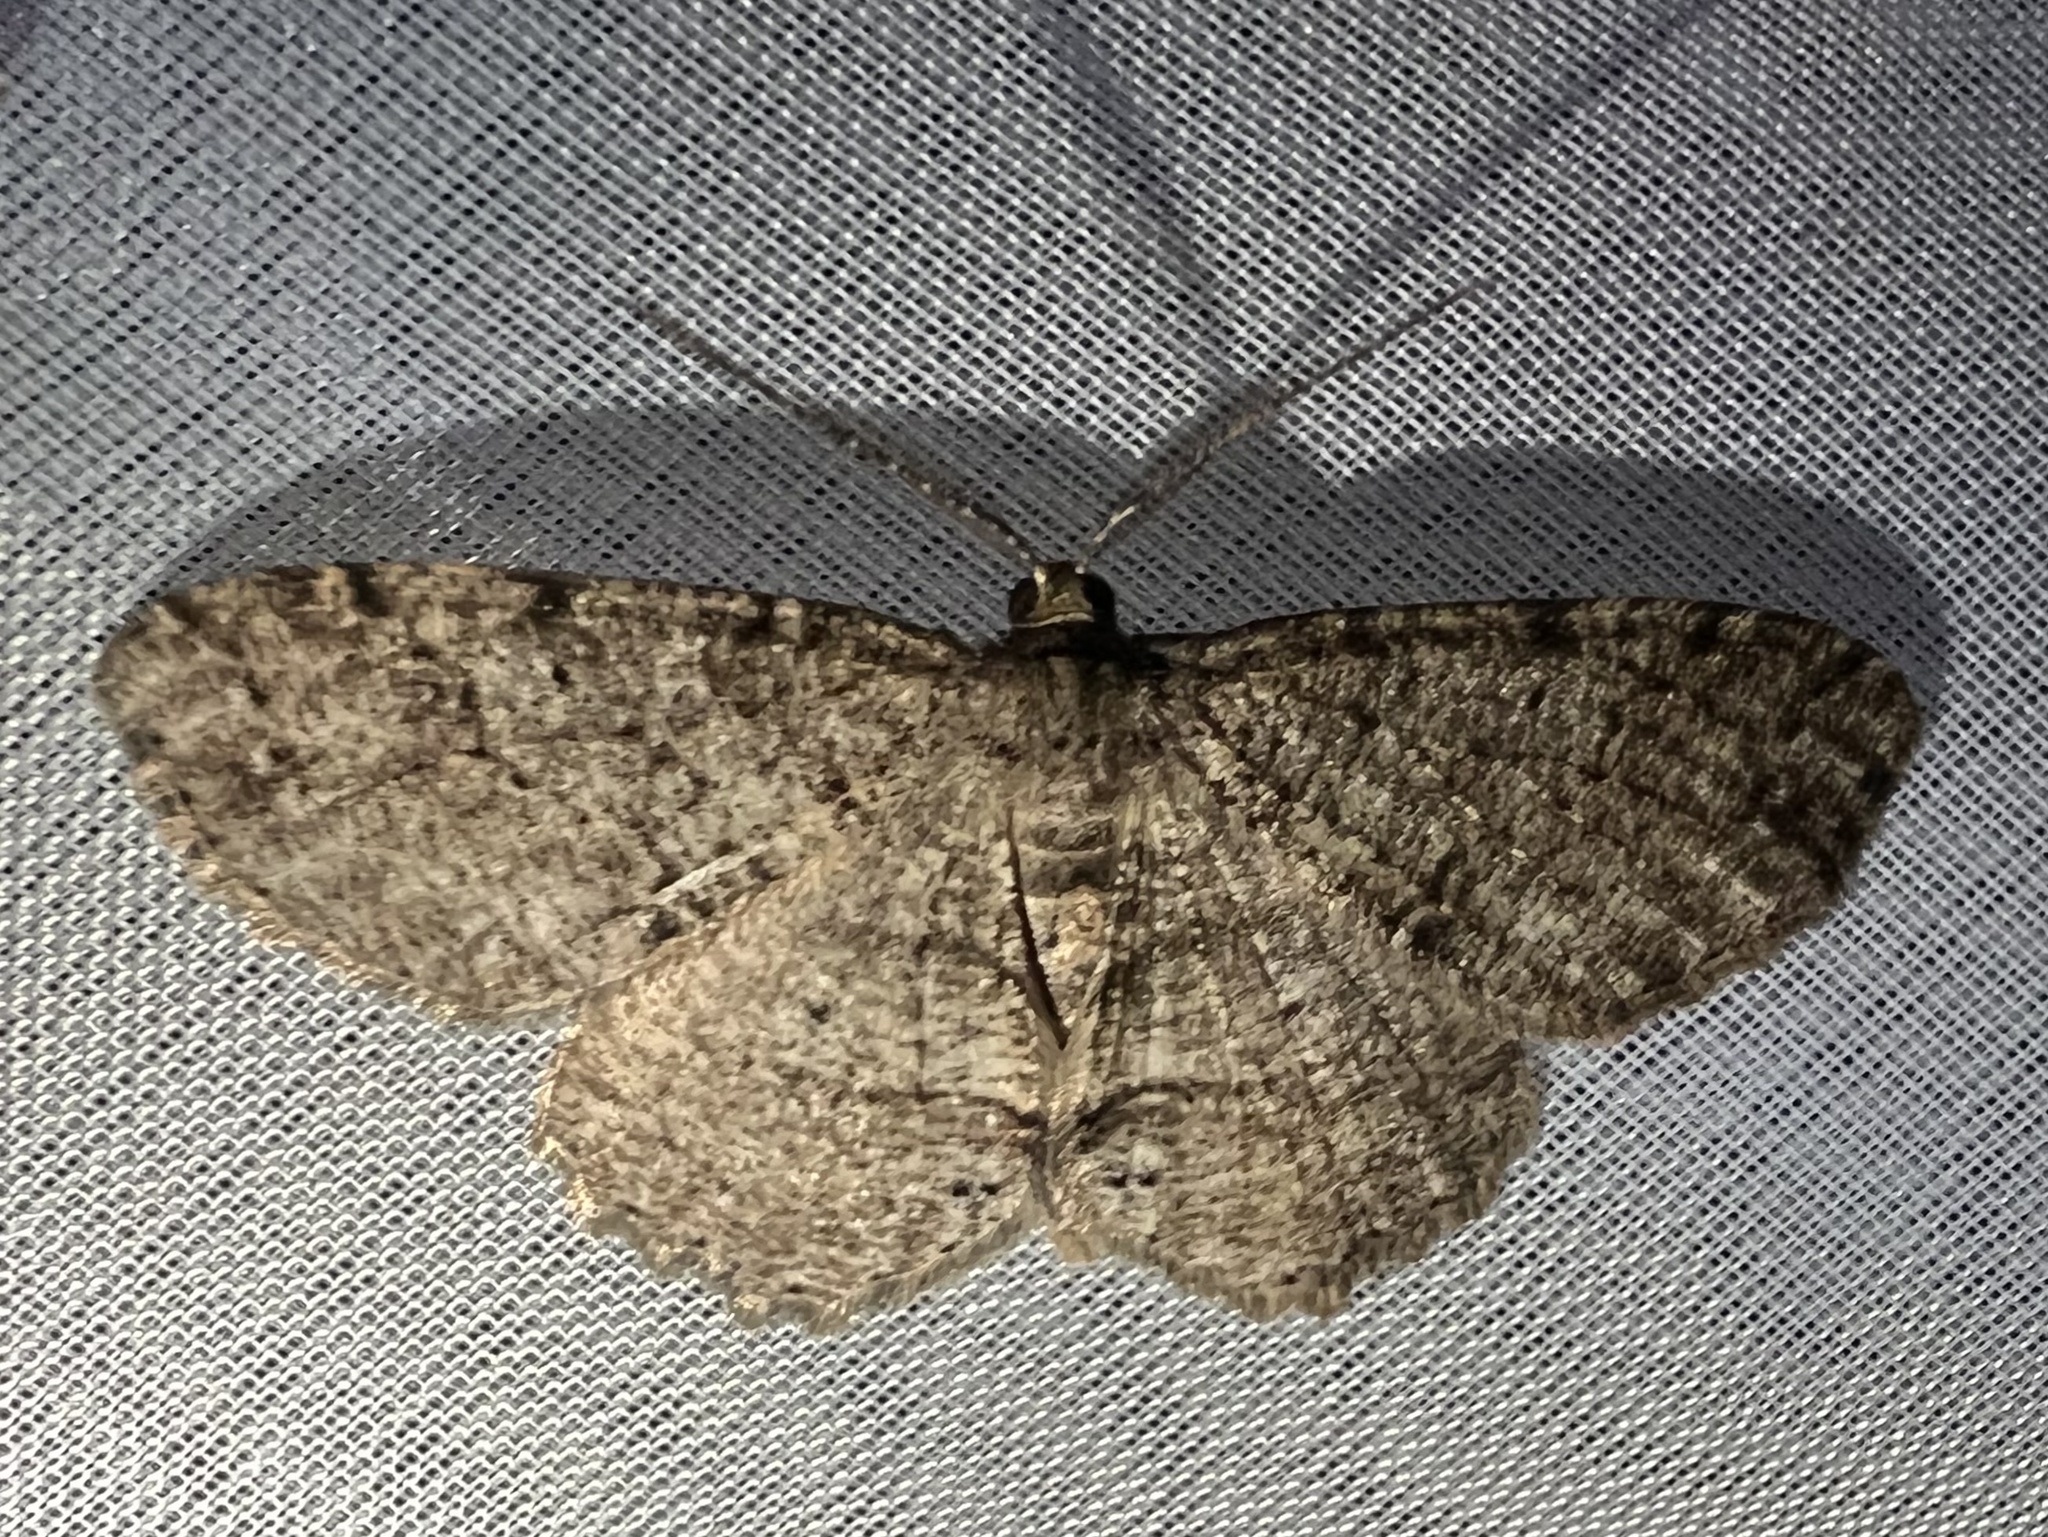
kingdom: Animalia
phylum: Arthropoda
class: Insecta
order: Lepidoptera
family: Geometridae
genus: Melanolophia
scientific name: Melanolophia canadaria
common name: Canadian melanolophia
